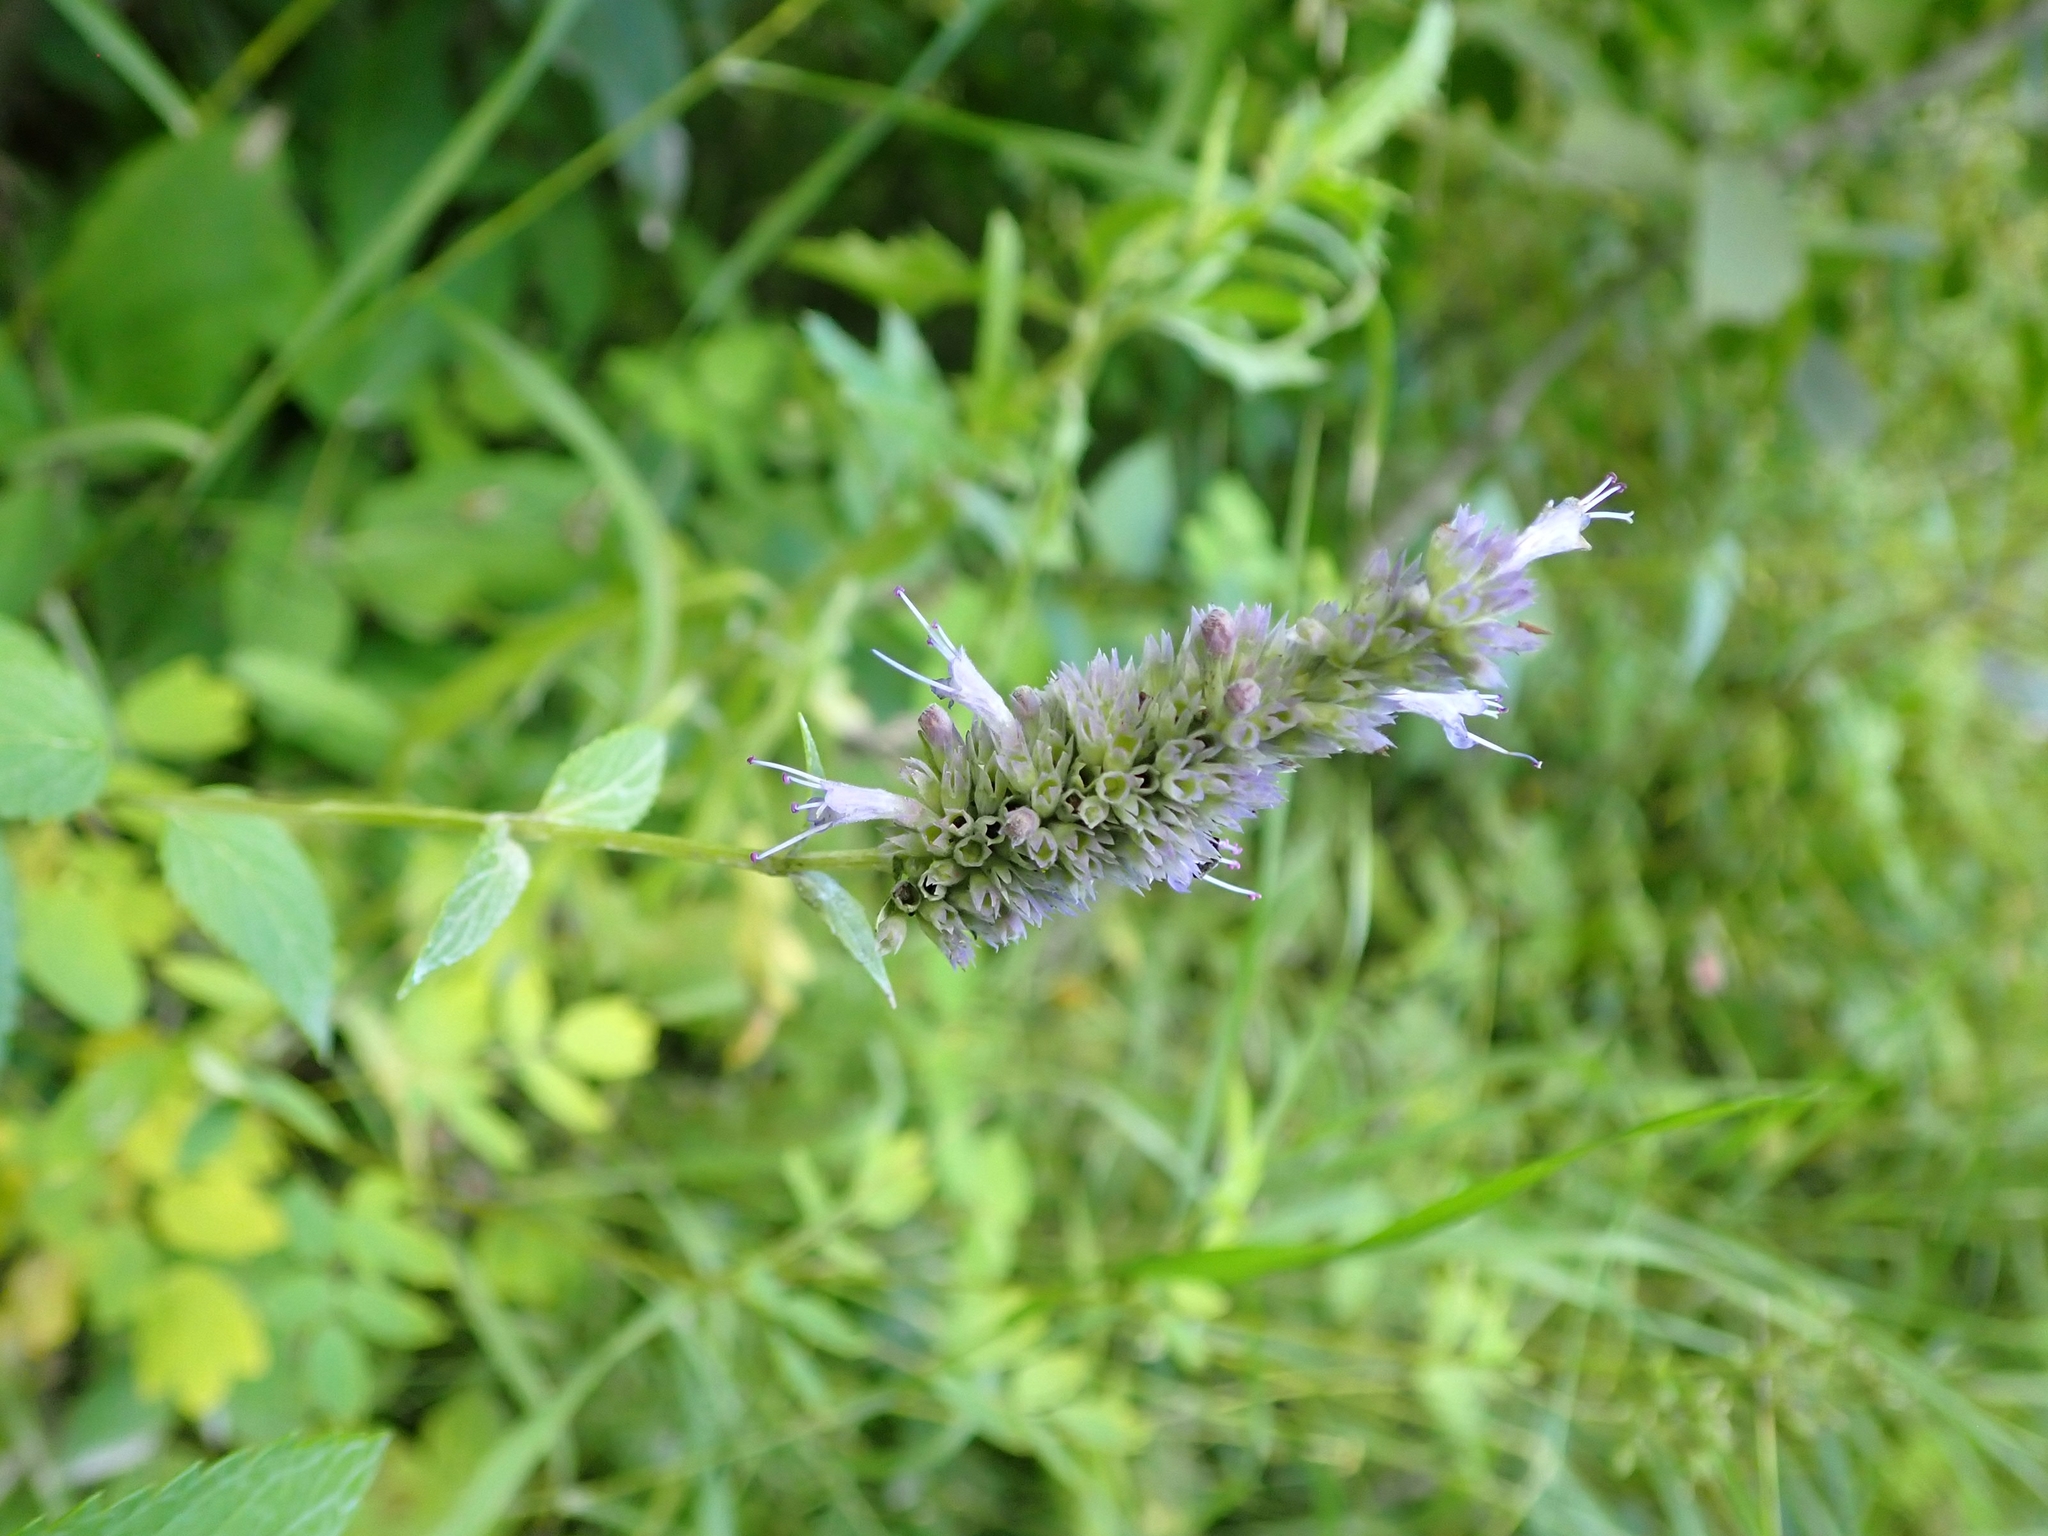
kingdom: Plantae
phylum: Tracheophyta
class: Magnoliopsida
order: Lamiales
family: Lamiaceae
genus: Agastache
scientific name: Agastache foeniculum
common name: Anise hyssop
